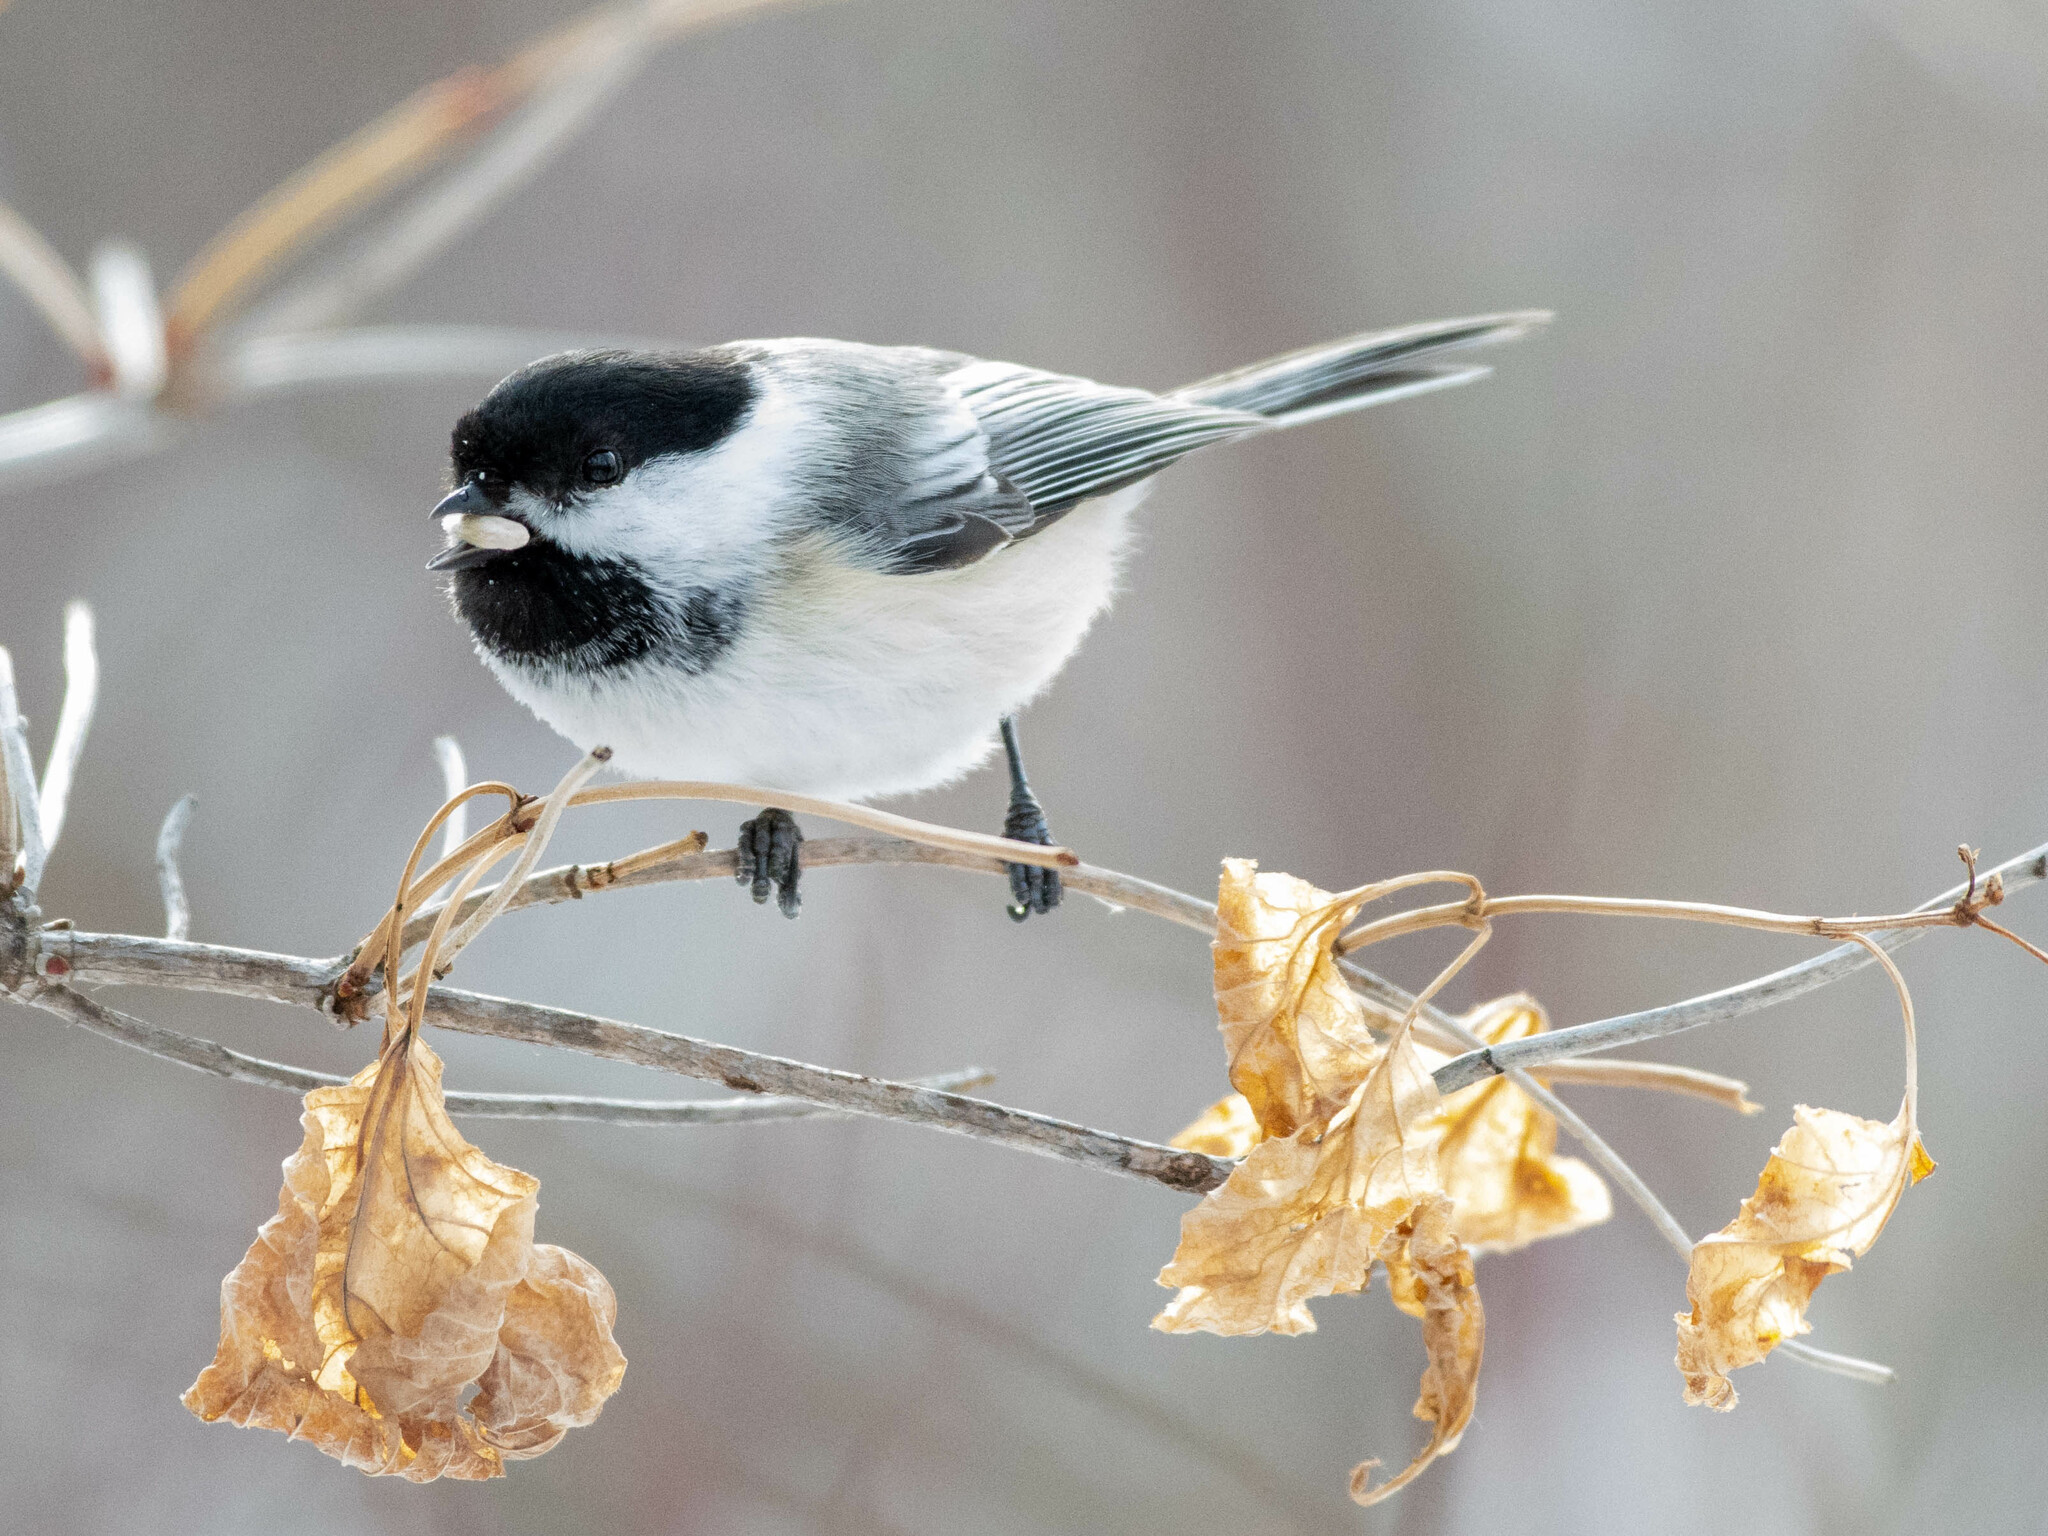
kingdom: Animalia
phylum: Chordata
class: Aves
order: Passeriformes
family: Paridae
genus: Poecile
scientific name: Poecile atricapillus
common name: Black-capped chickadee
